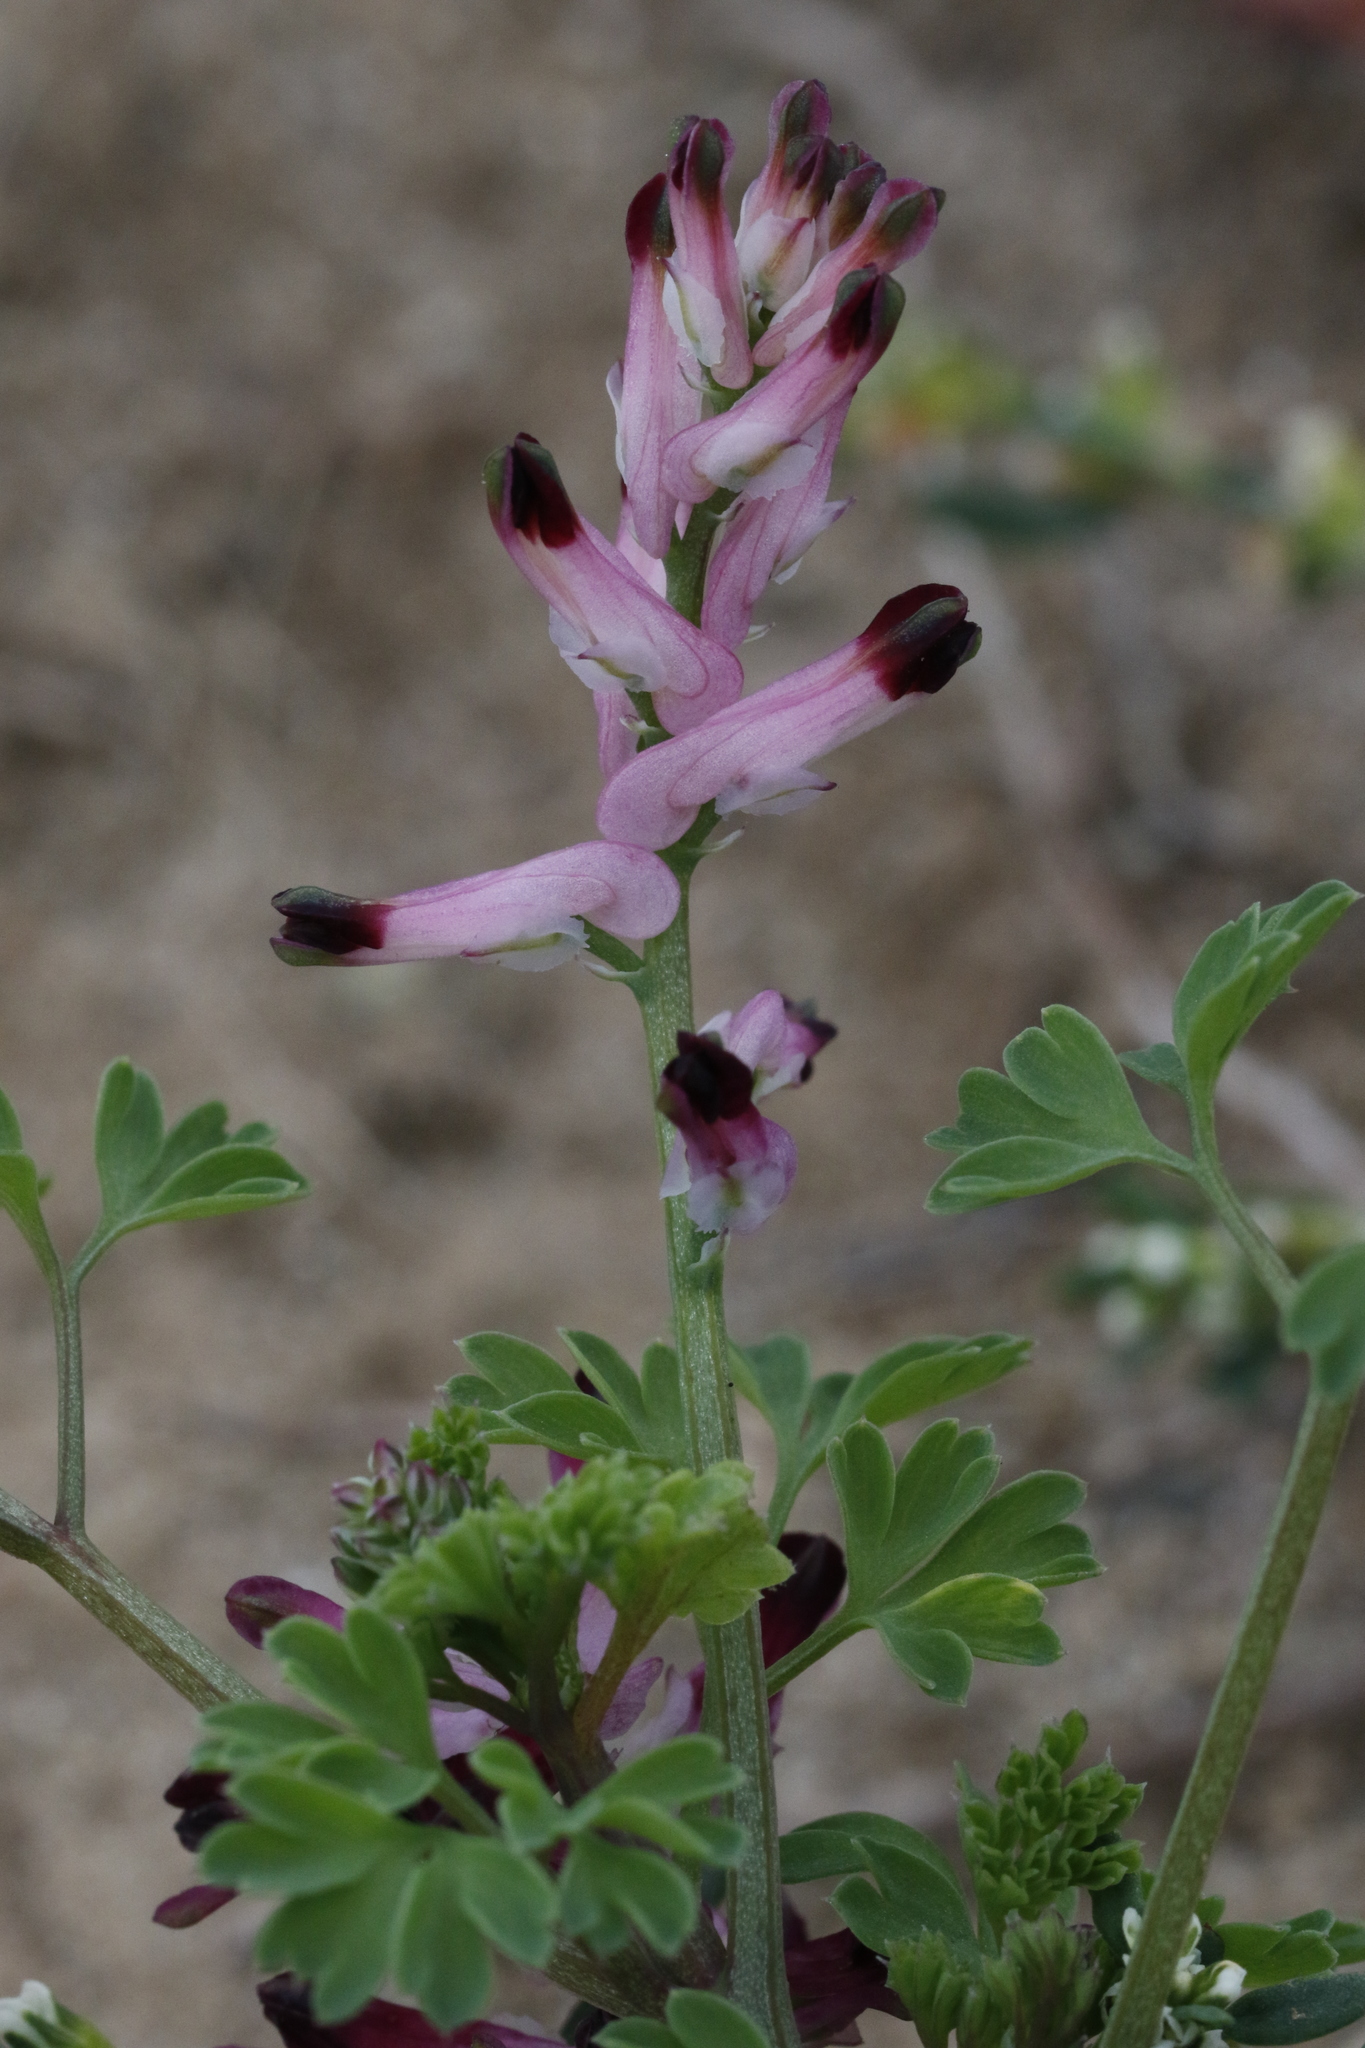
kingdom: Plantae
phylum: Tracheophyta
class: Magnoliopsida
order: Ranunculales
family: Papaveraceae
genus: Fumaria
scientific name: Fumaria muralis
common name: Common ramping-fumitory
